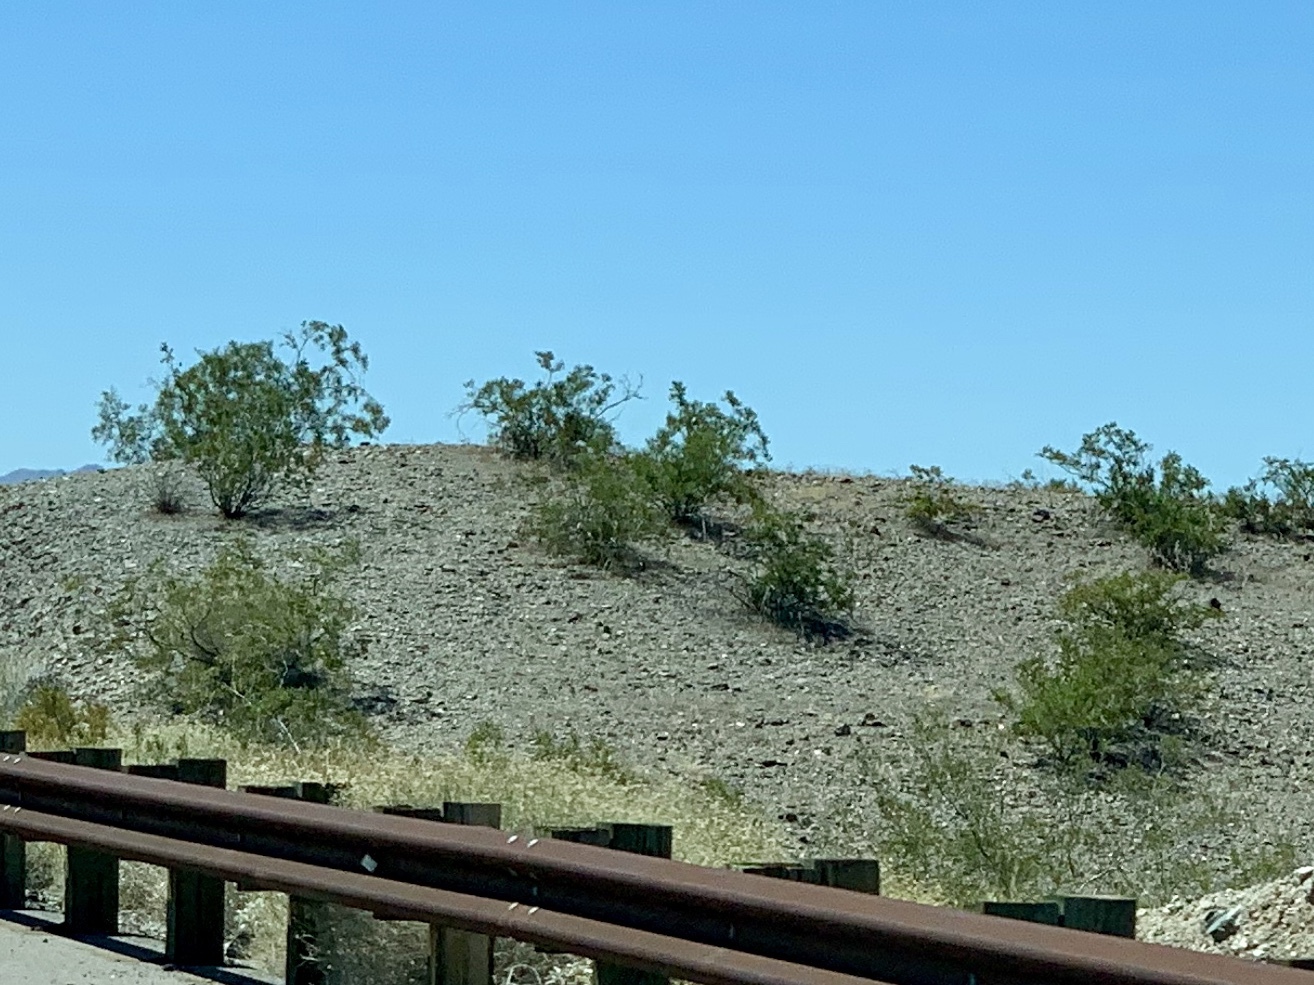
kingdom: Plantae
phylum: Tracheophyta
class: Magnoliopsida
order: Zygophyllales
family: Zygophyllaceae
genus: Larrea
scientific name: Larrea tridentata
